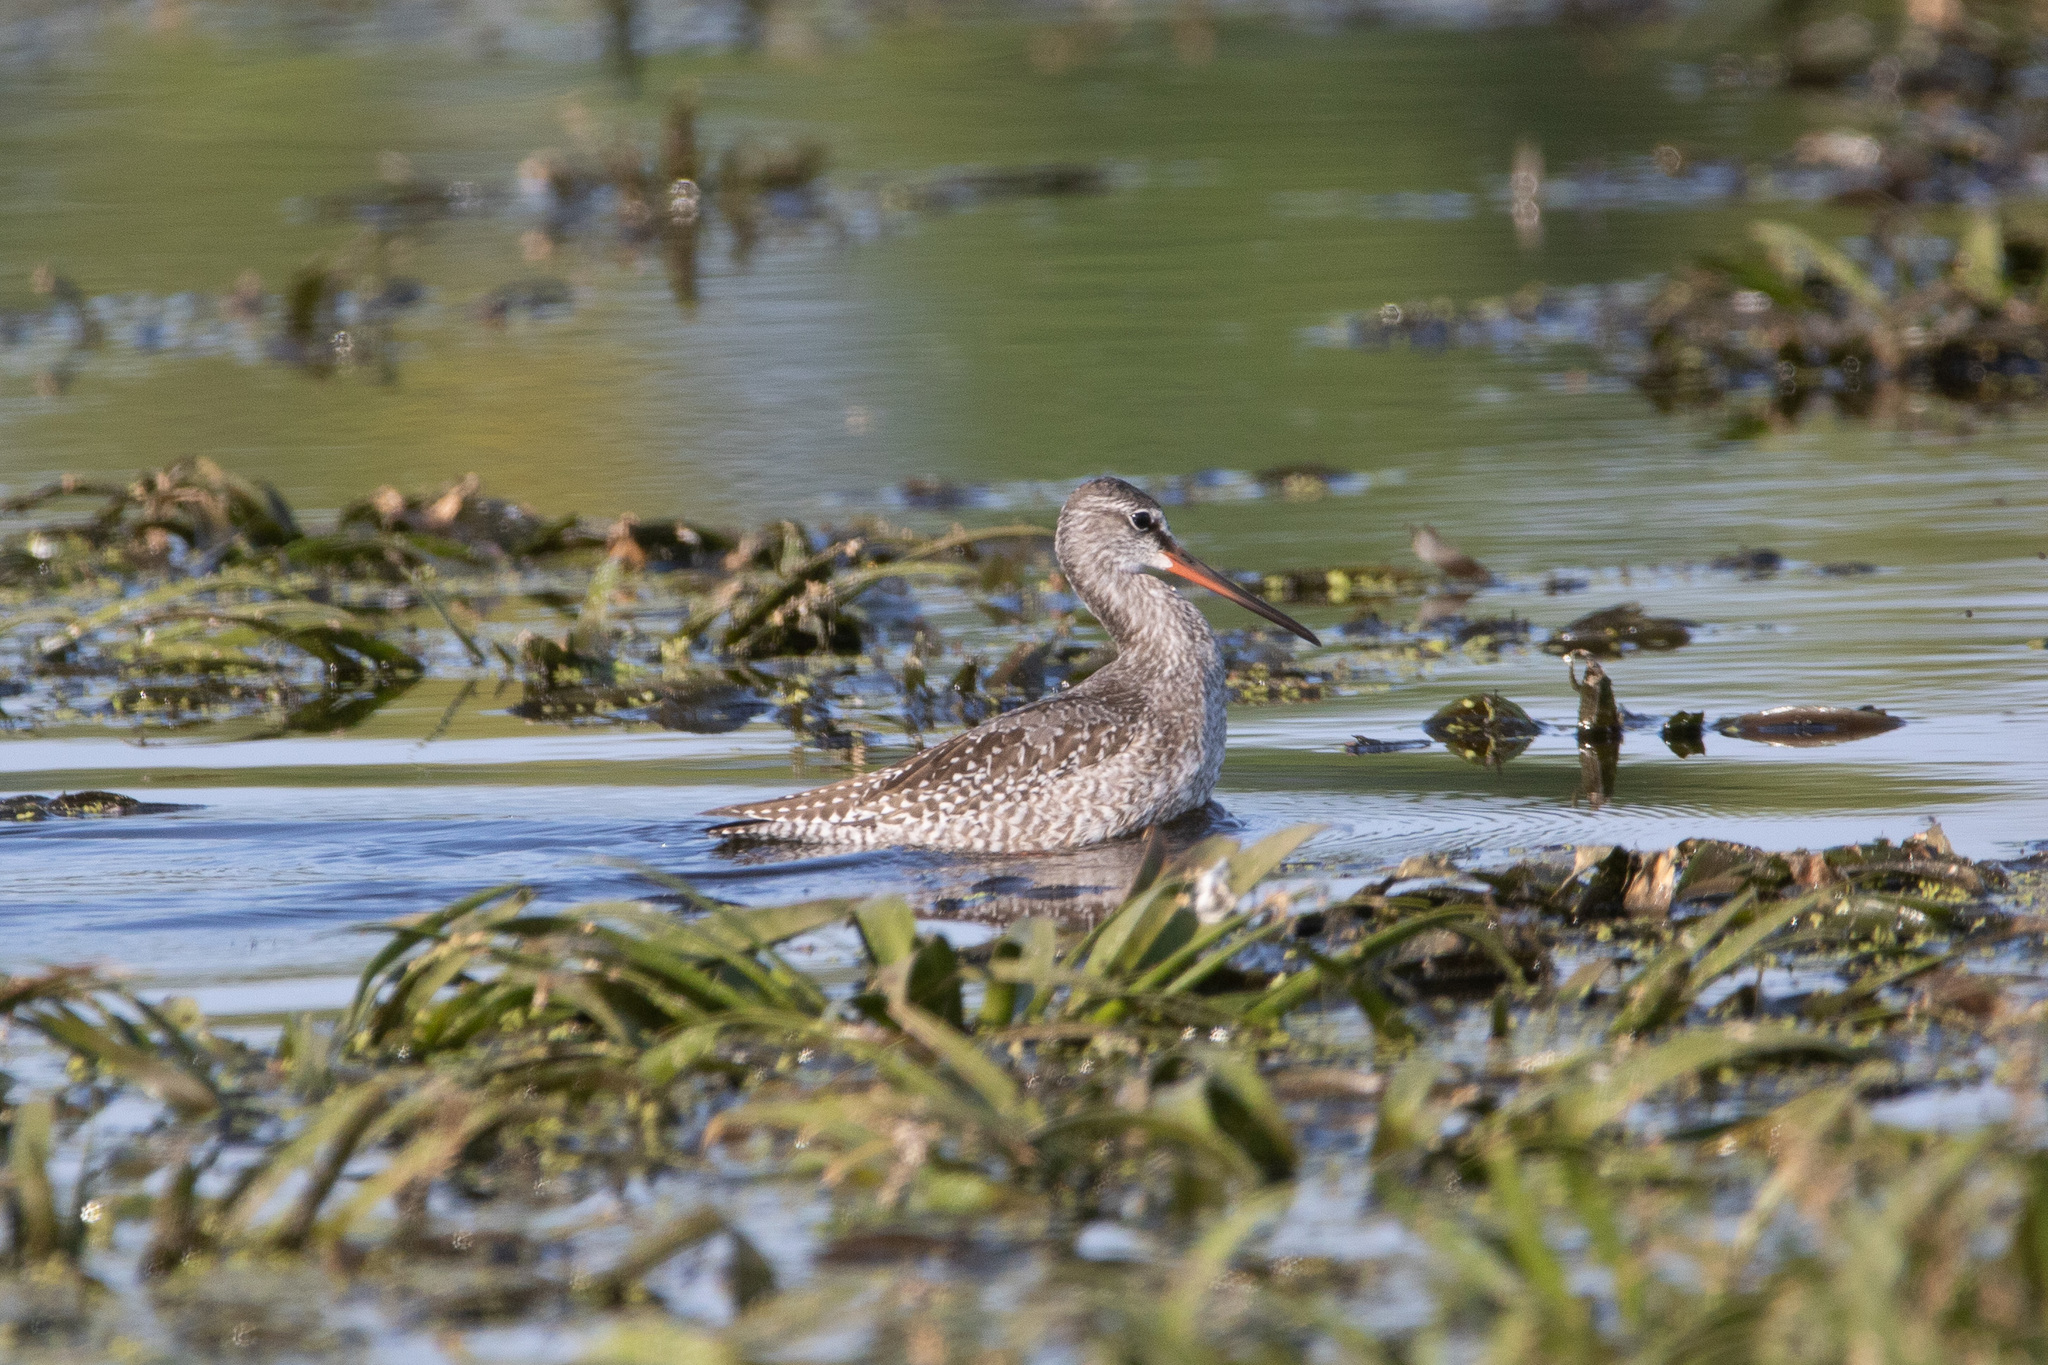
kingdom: Animalia
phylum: Chordata
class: Aves
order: Charadriiformes
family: Scolopacidae
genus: Tringa
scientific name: Tringa erythropus
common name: Spotted redshank
